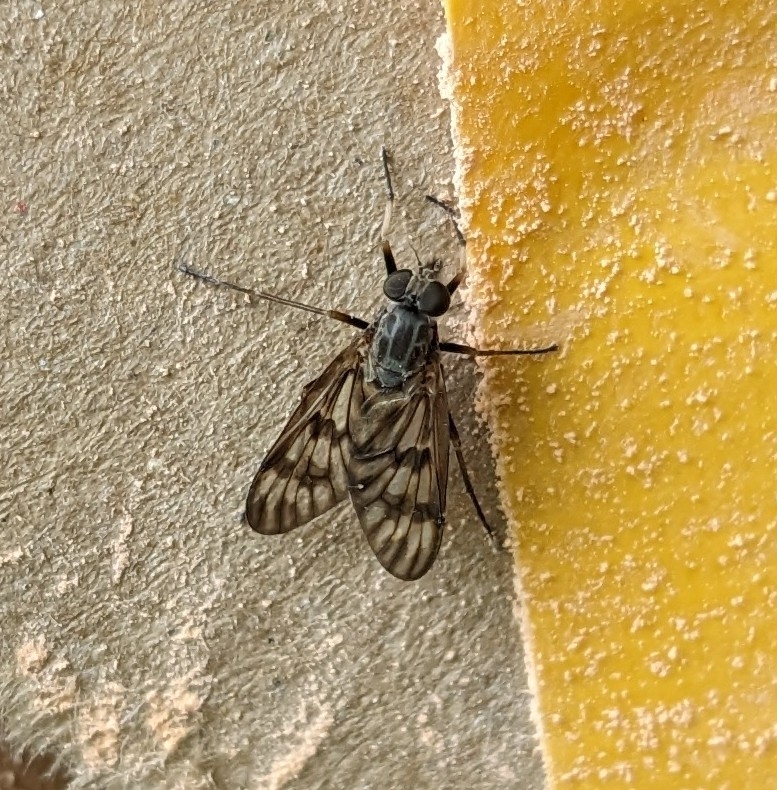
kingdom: Animalia
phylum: Arthropoda
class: Insecta
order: Diptera
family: Rhagionidae
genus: Rhagio
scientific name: Rhagio mystaceus
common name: Common snipe fly
